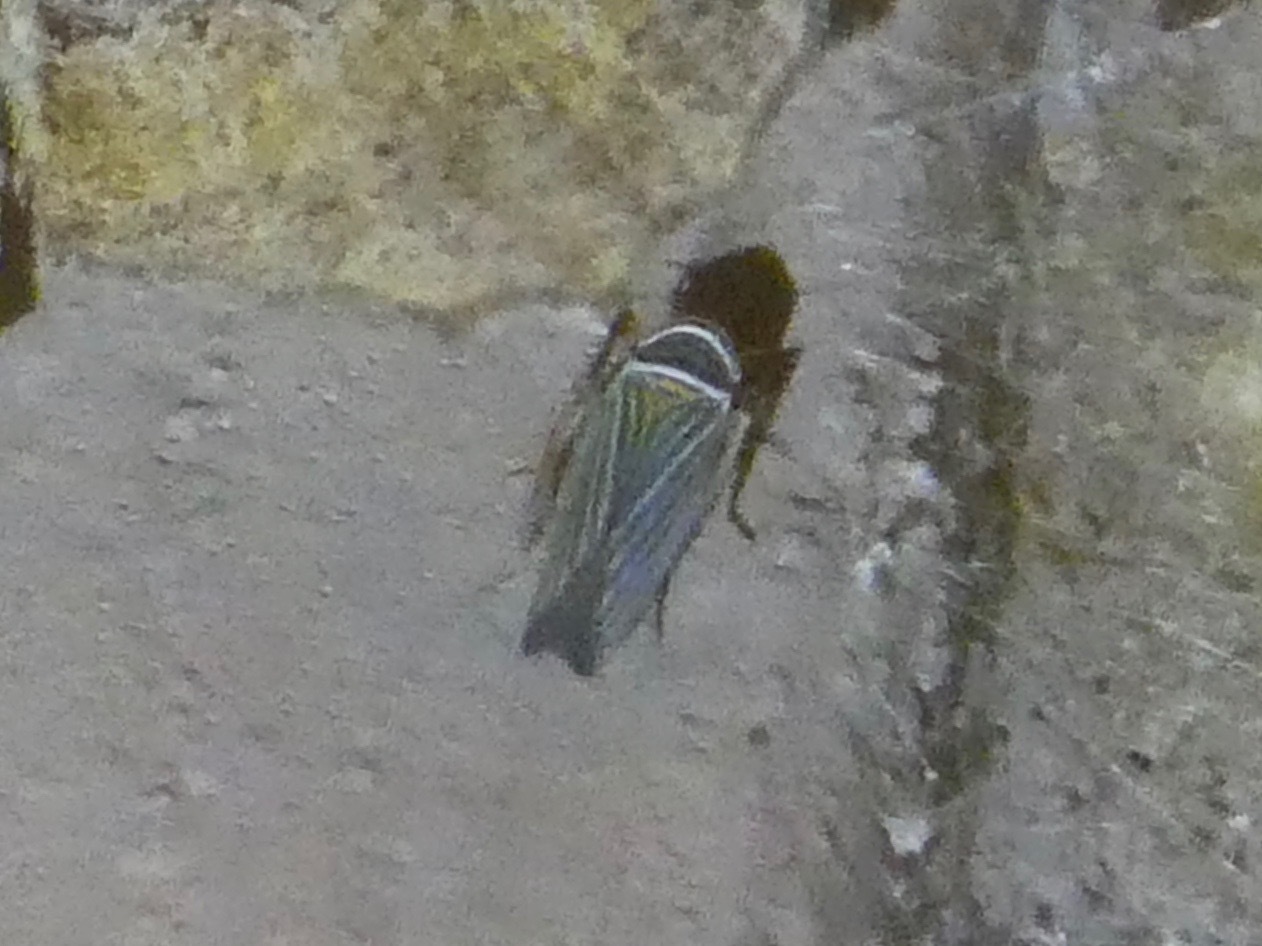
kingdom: Animalia
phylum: Arthropoda
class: Insecta
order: Hemiptera
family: Cicadellidae
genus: Tylozygus
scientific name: Tylozygus bifidus
